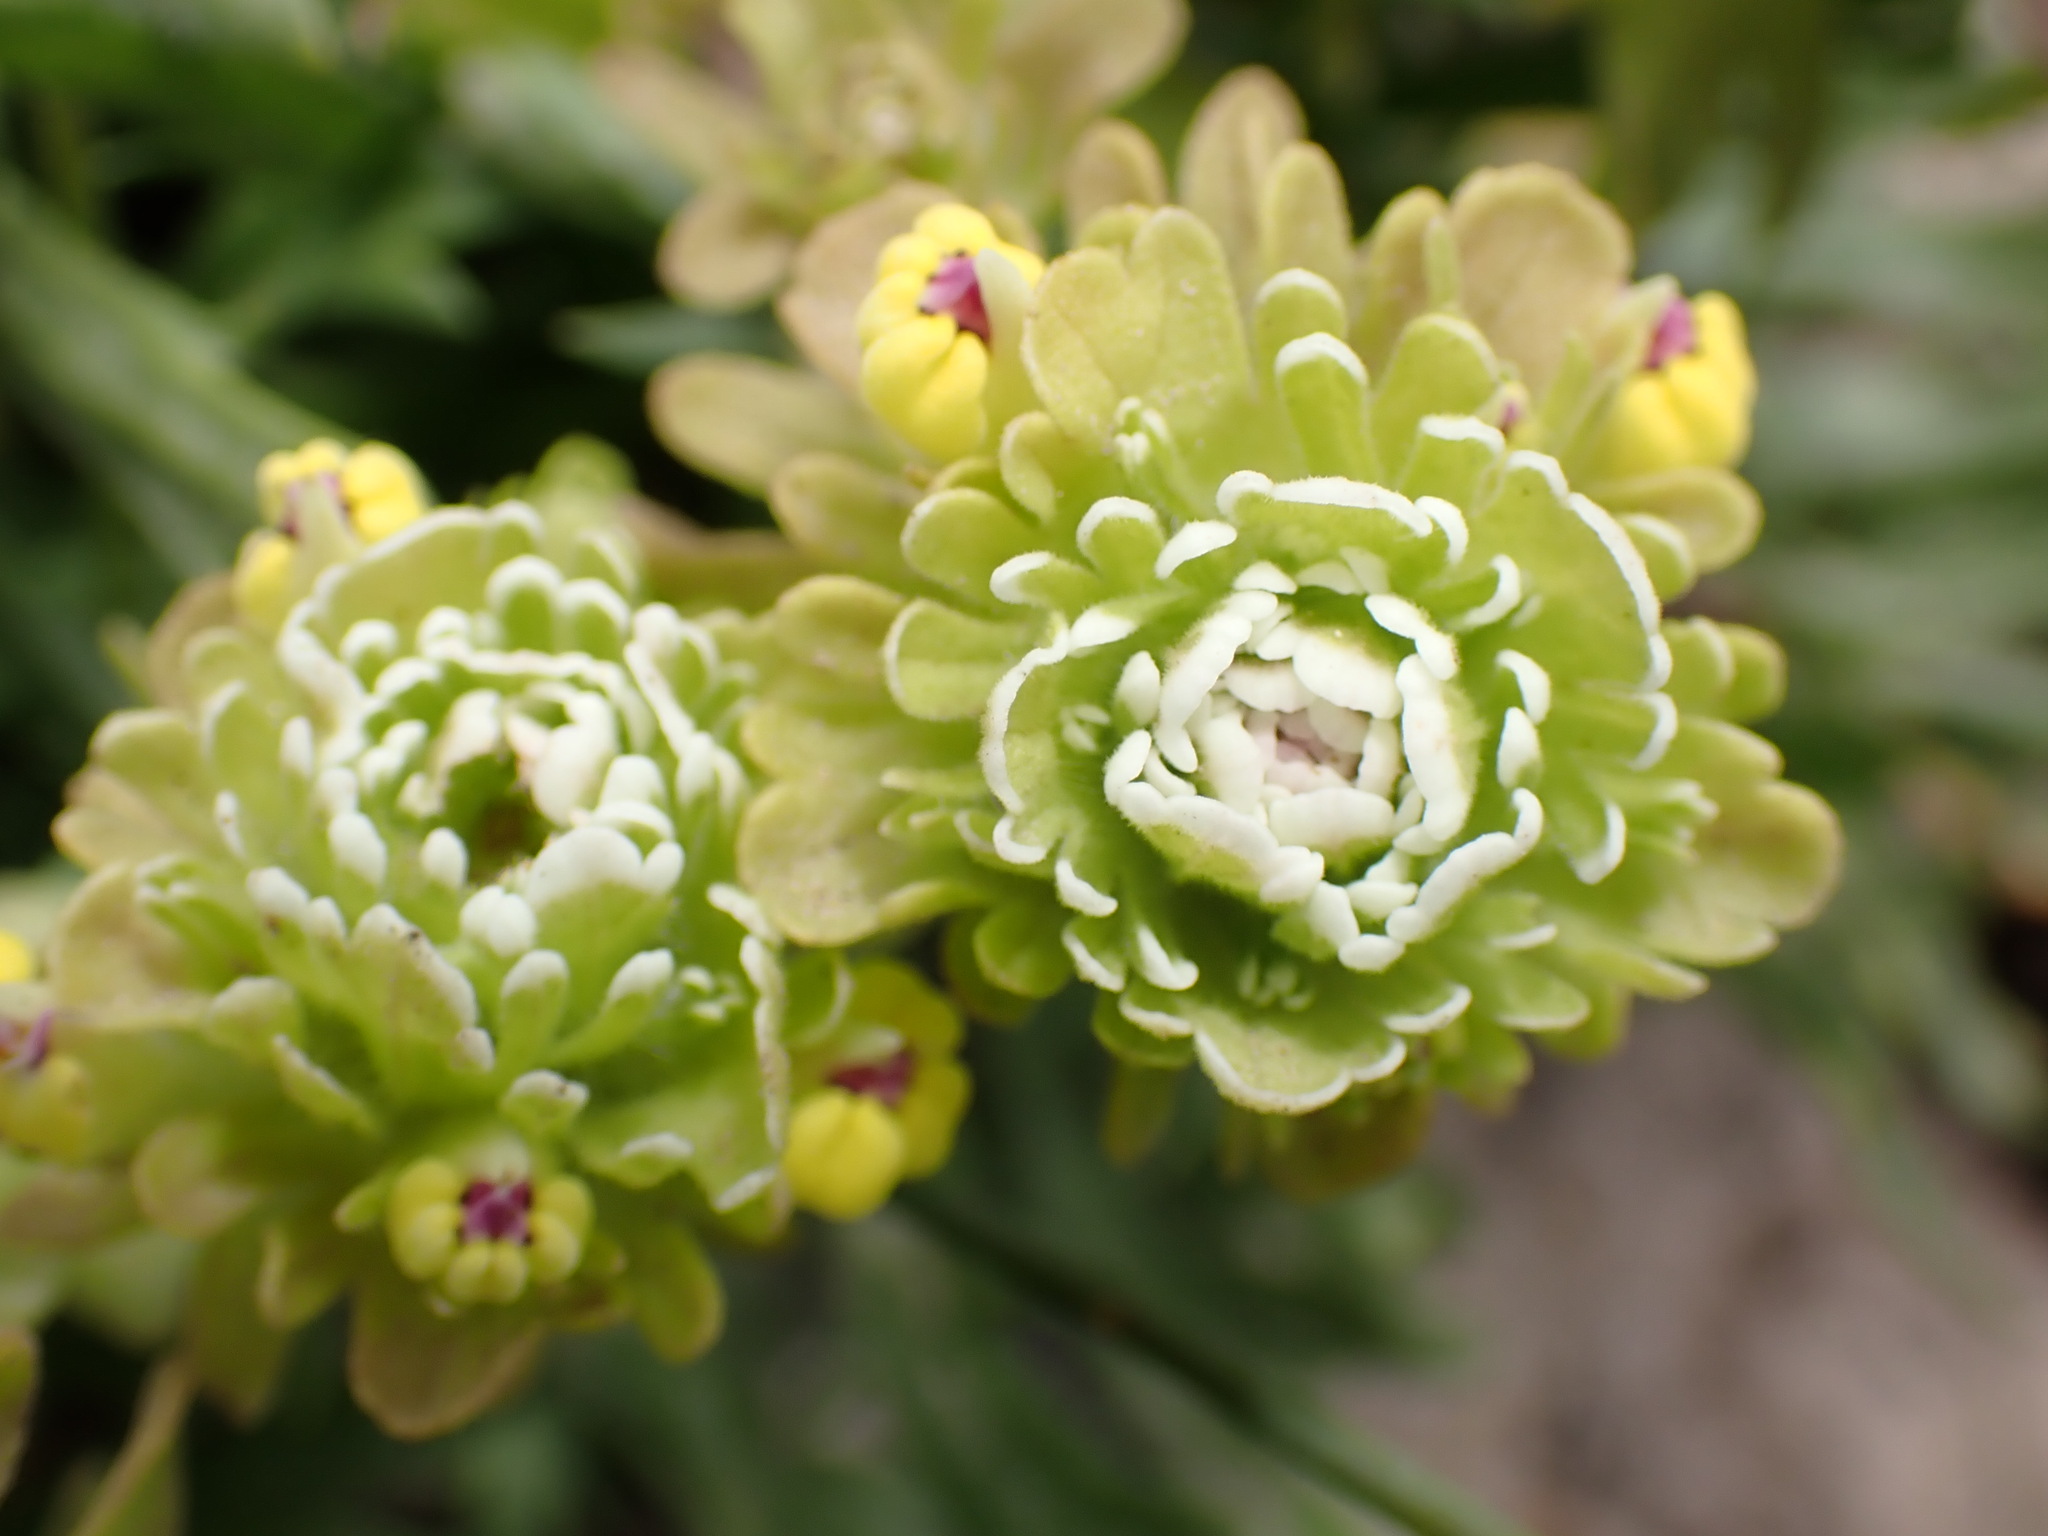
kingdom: Plantae
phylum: Tracheophyta
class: Magnoliopsida
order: Lamiales
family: Orobanchaceae
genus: Castilleja
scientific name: Castilleja ambigua
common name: Johnny-nip
